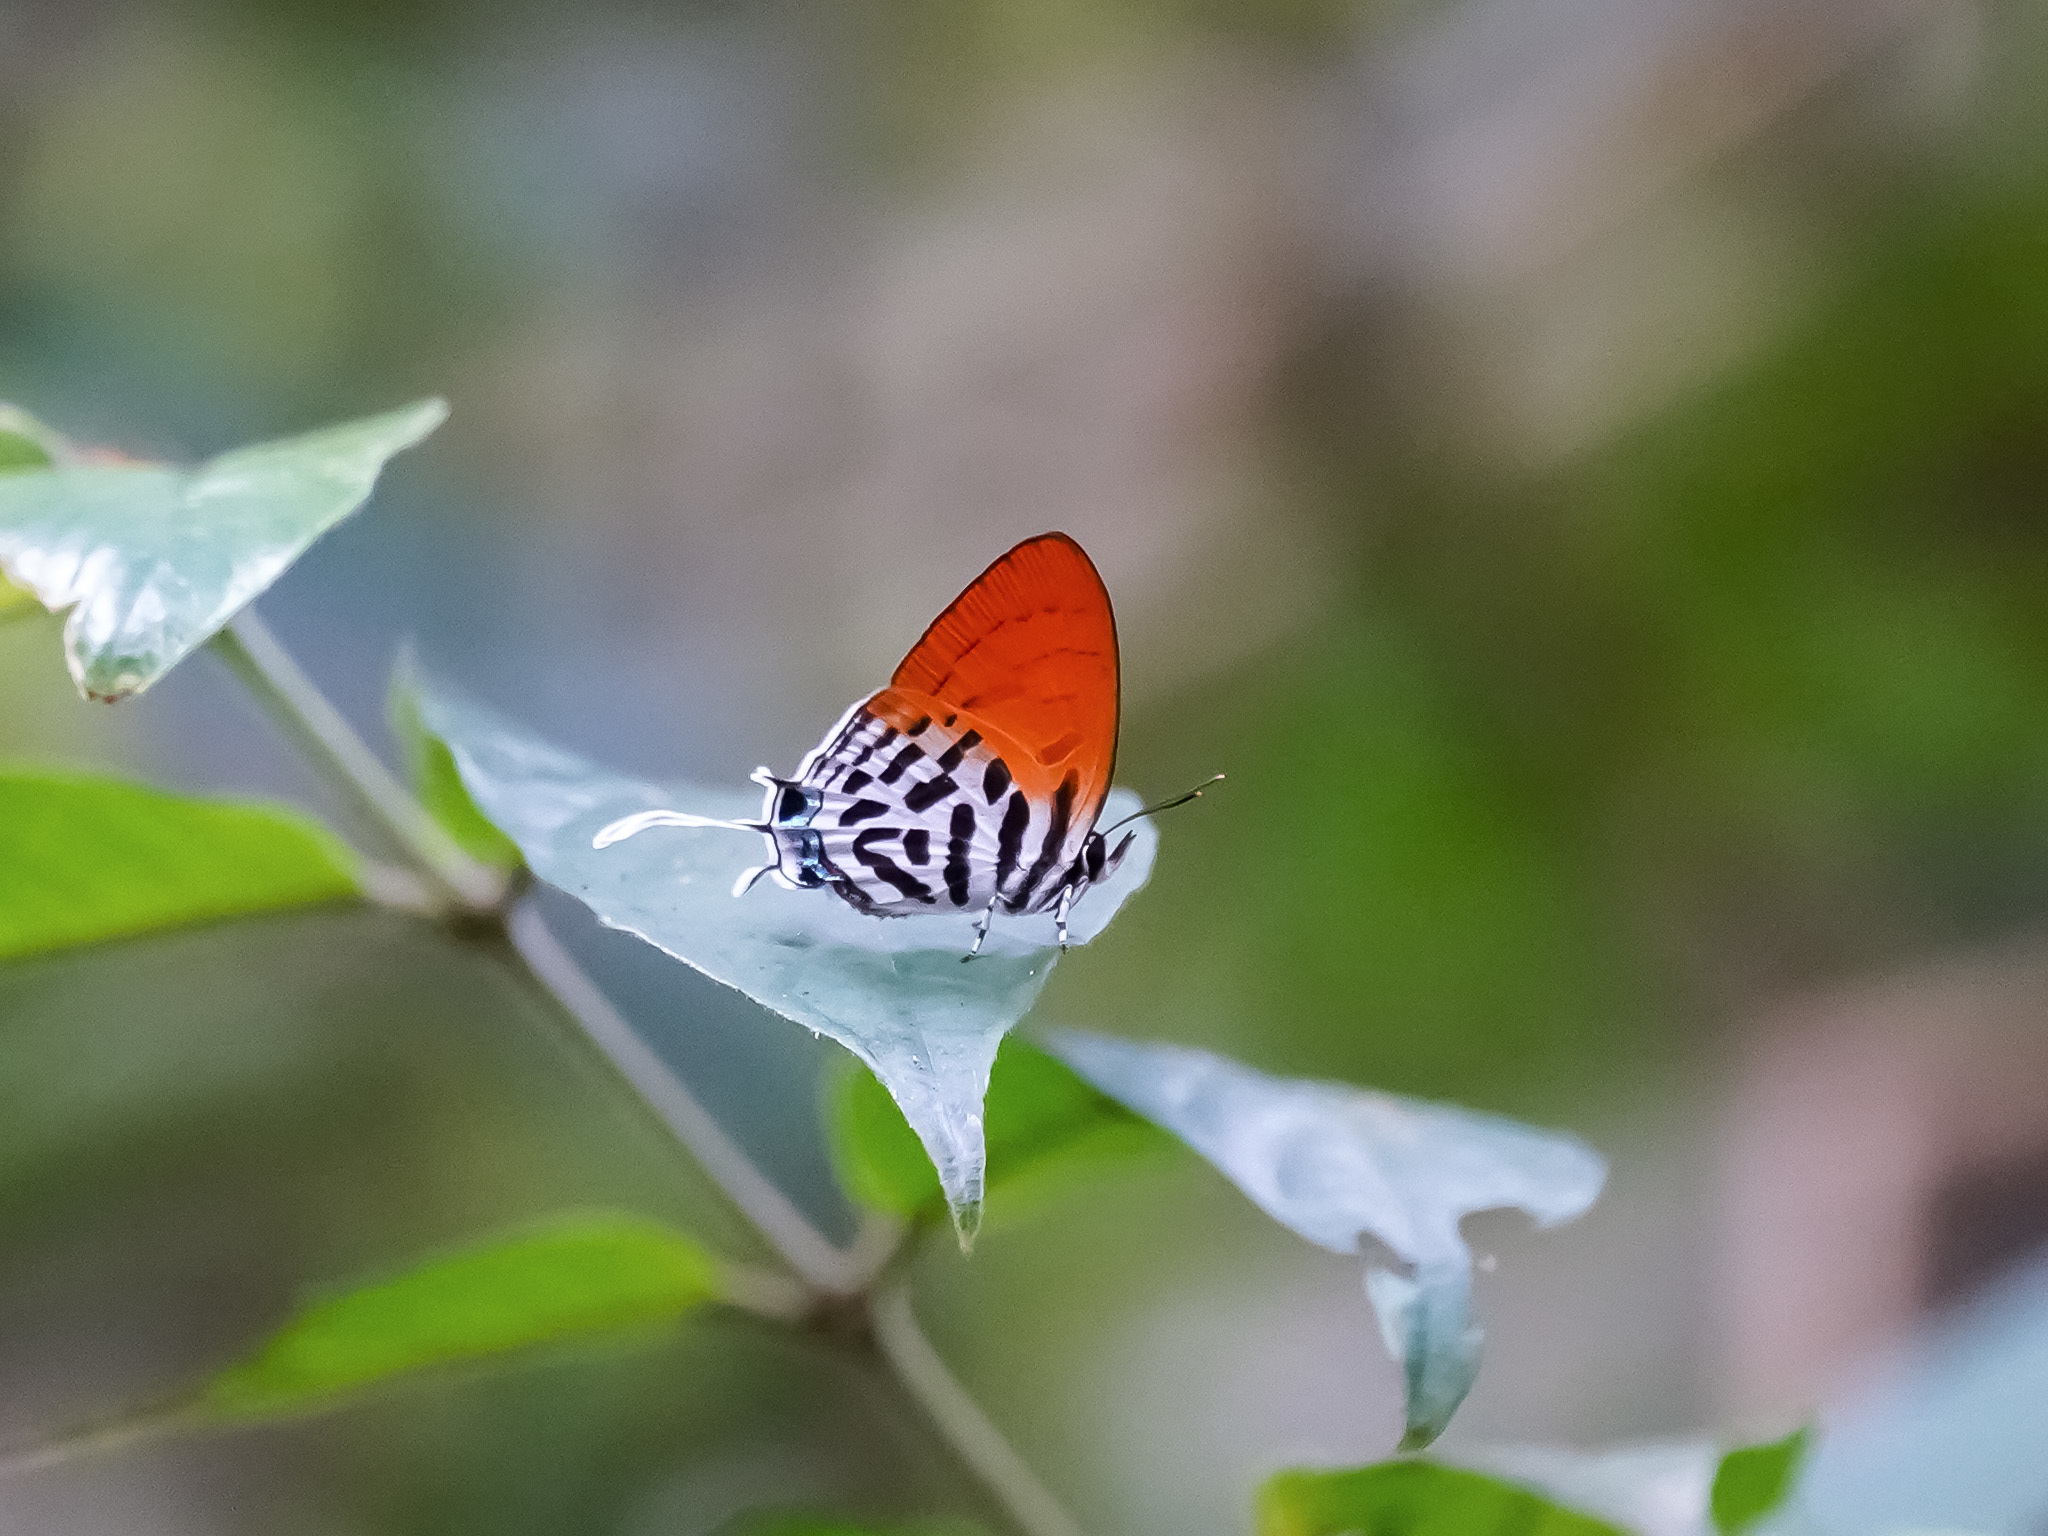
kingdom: Animalia
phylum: Arthropoda
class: Insecta
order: Lepidoptera
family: Lycaenidae
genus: Drupadia
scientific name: Drupadia ravindra
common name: Common posy
